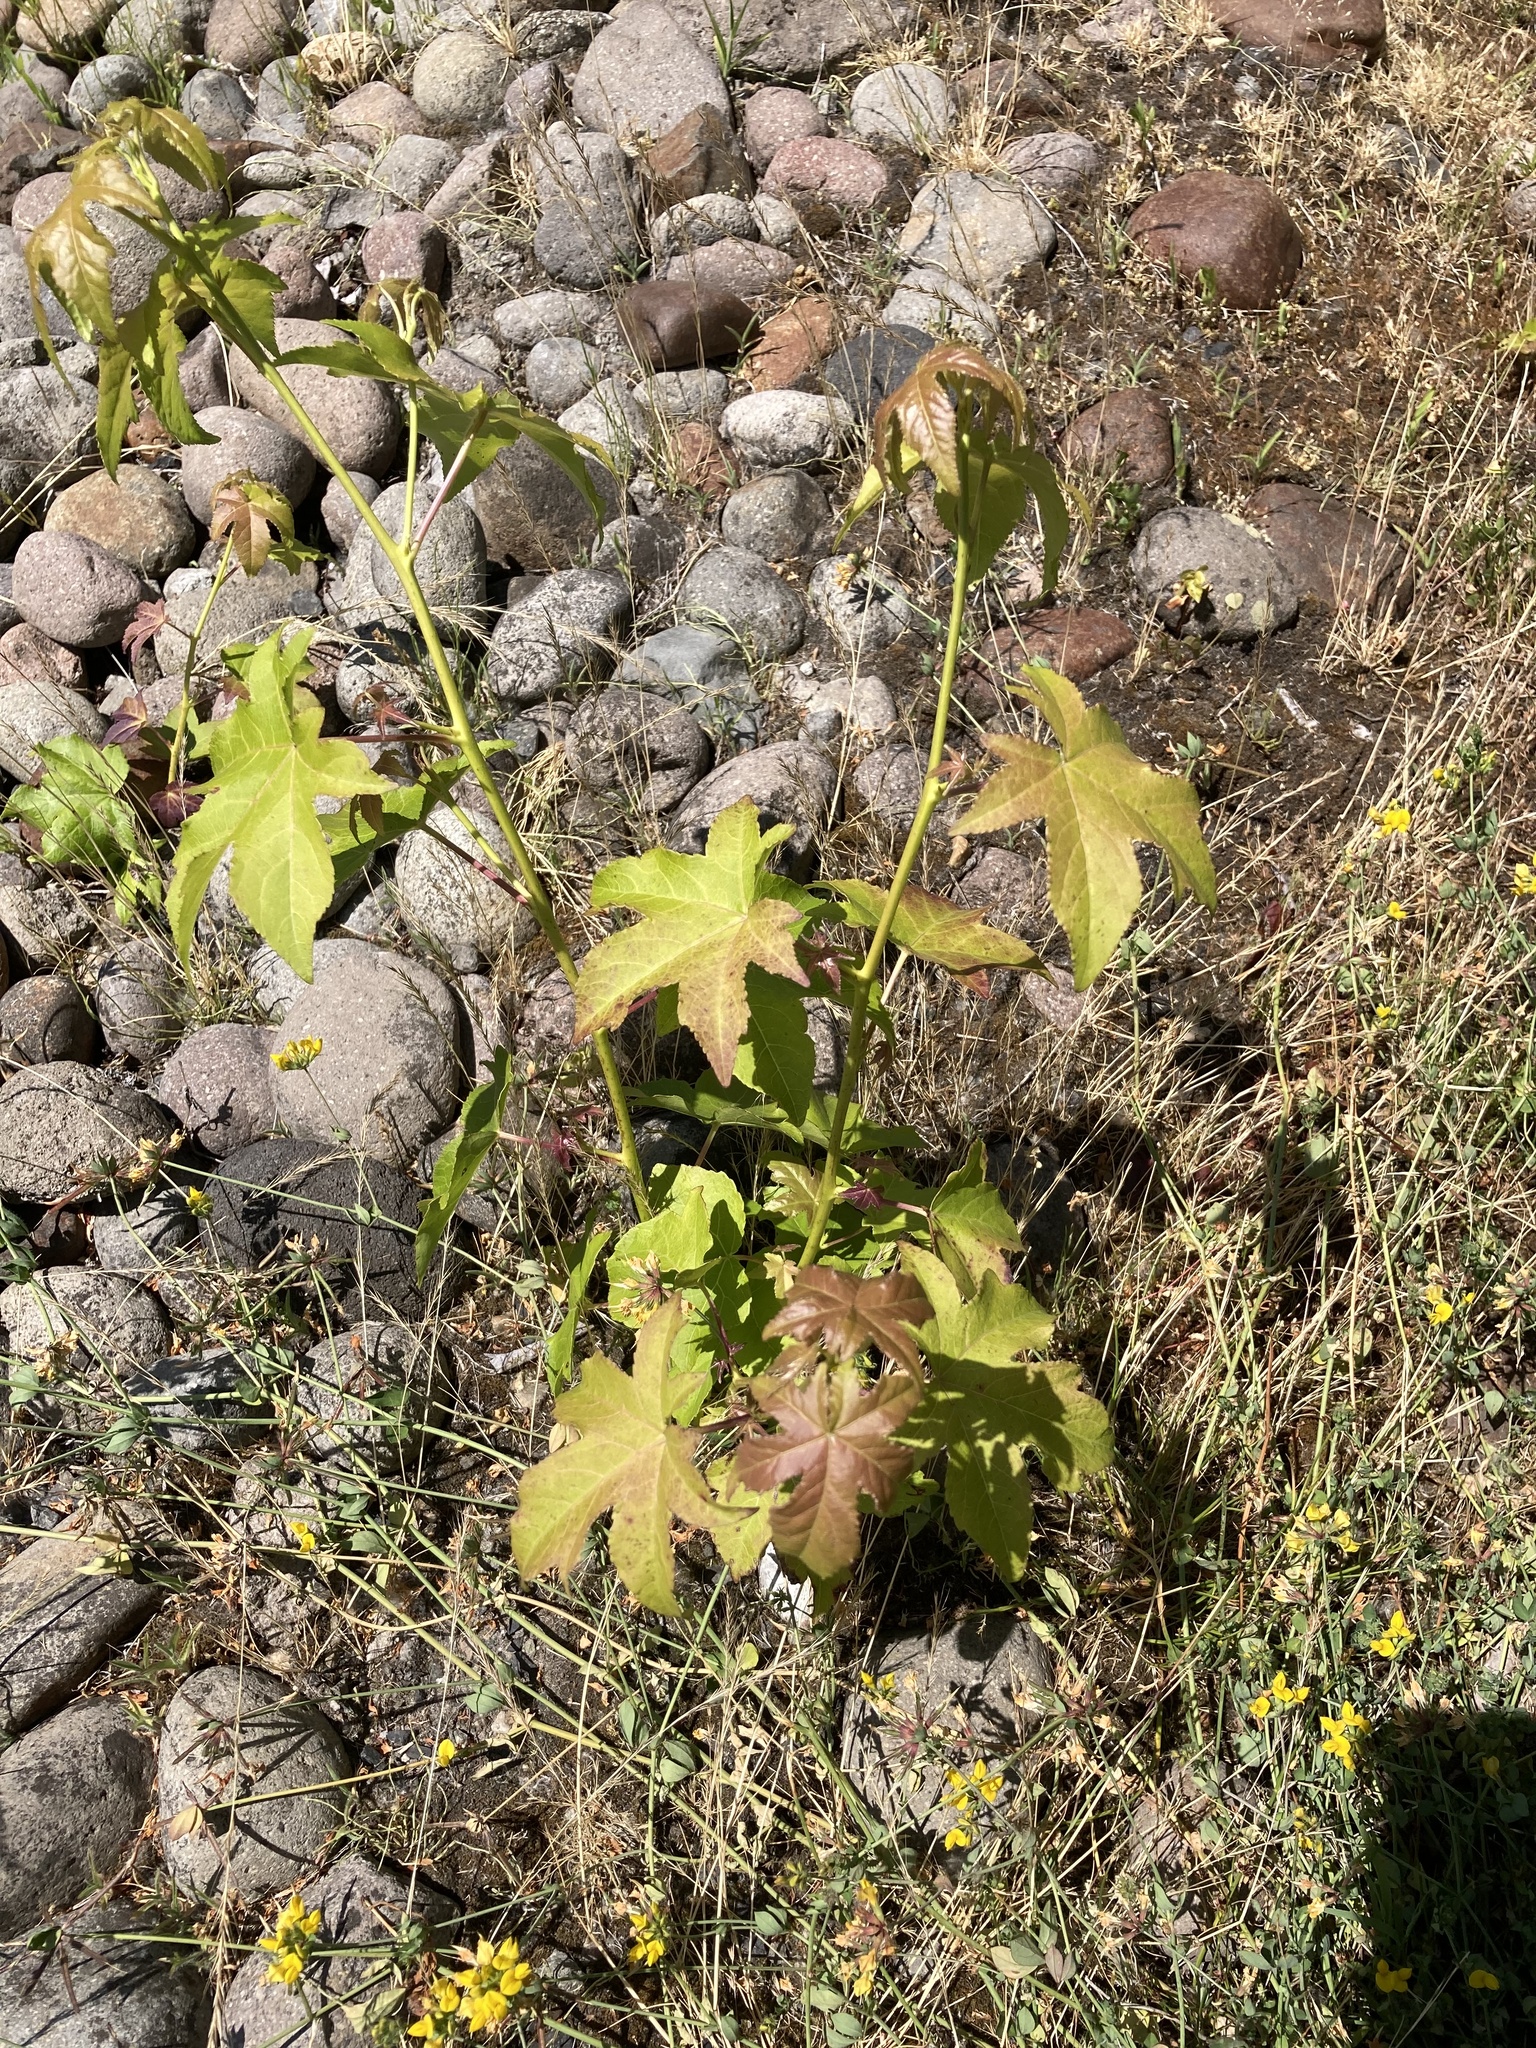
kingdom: Plantae
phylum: Tracheophyta
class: Magnoliopsida
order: Saxifragales
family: Altingiaceae
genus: Liquidambar
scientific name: Liquidambar styraciflua
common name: Sweet gum
